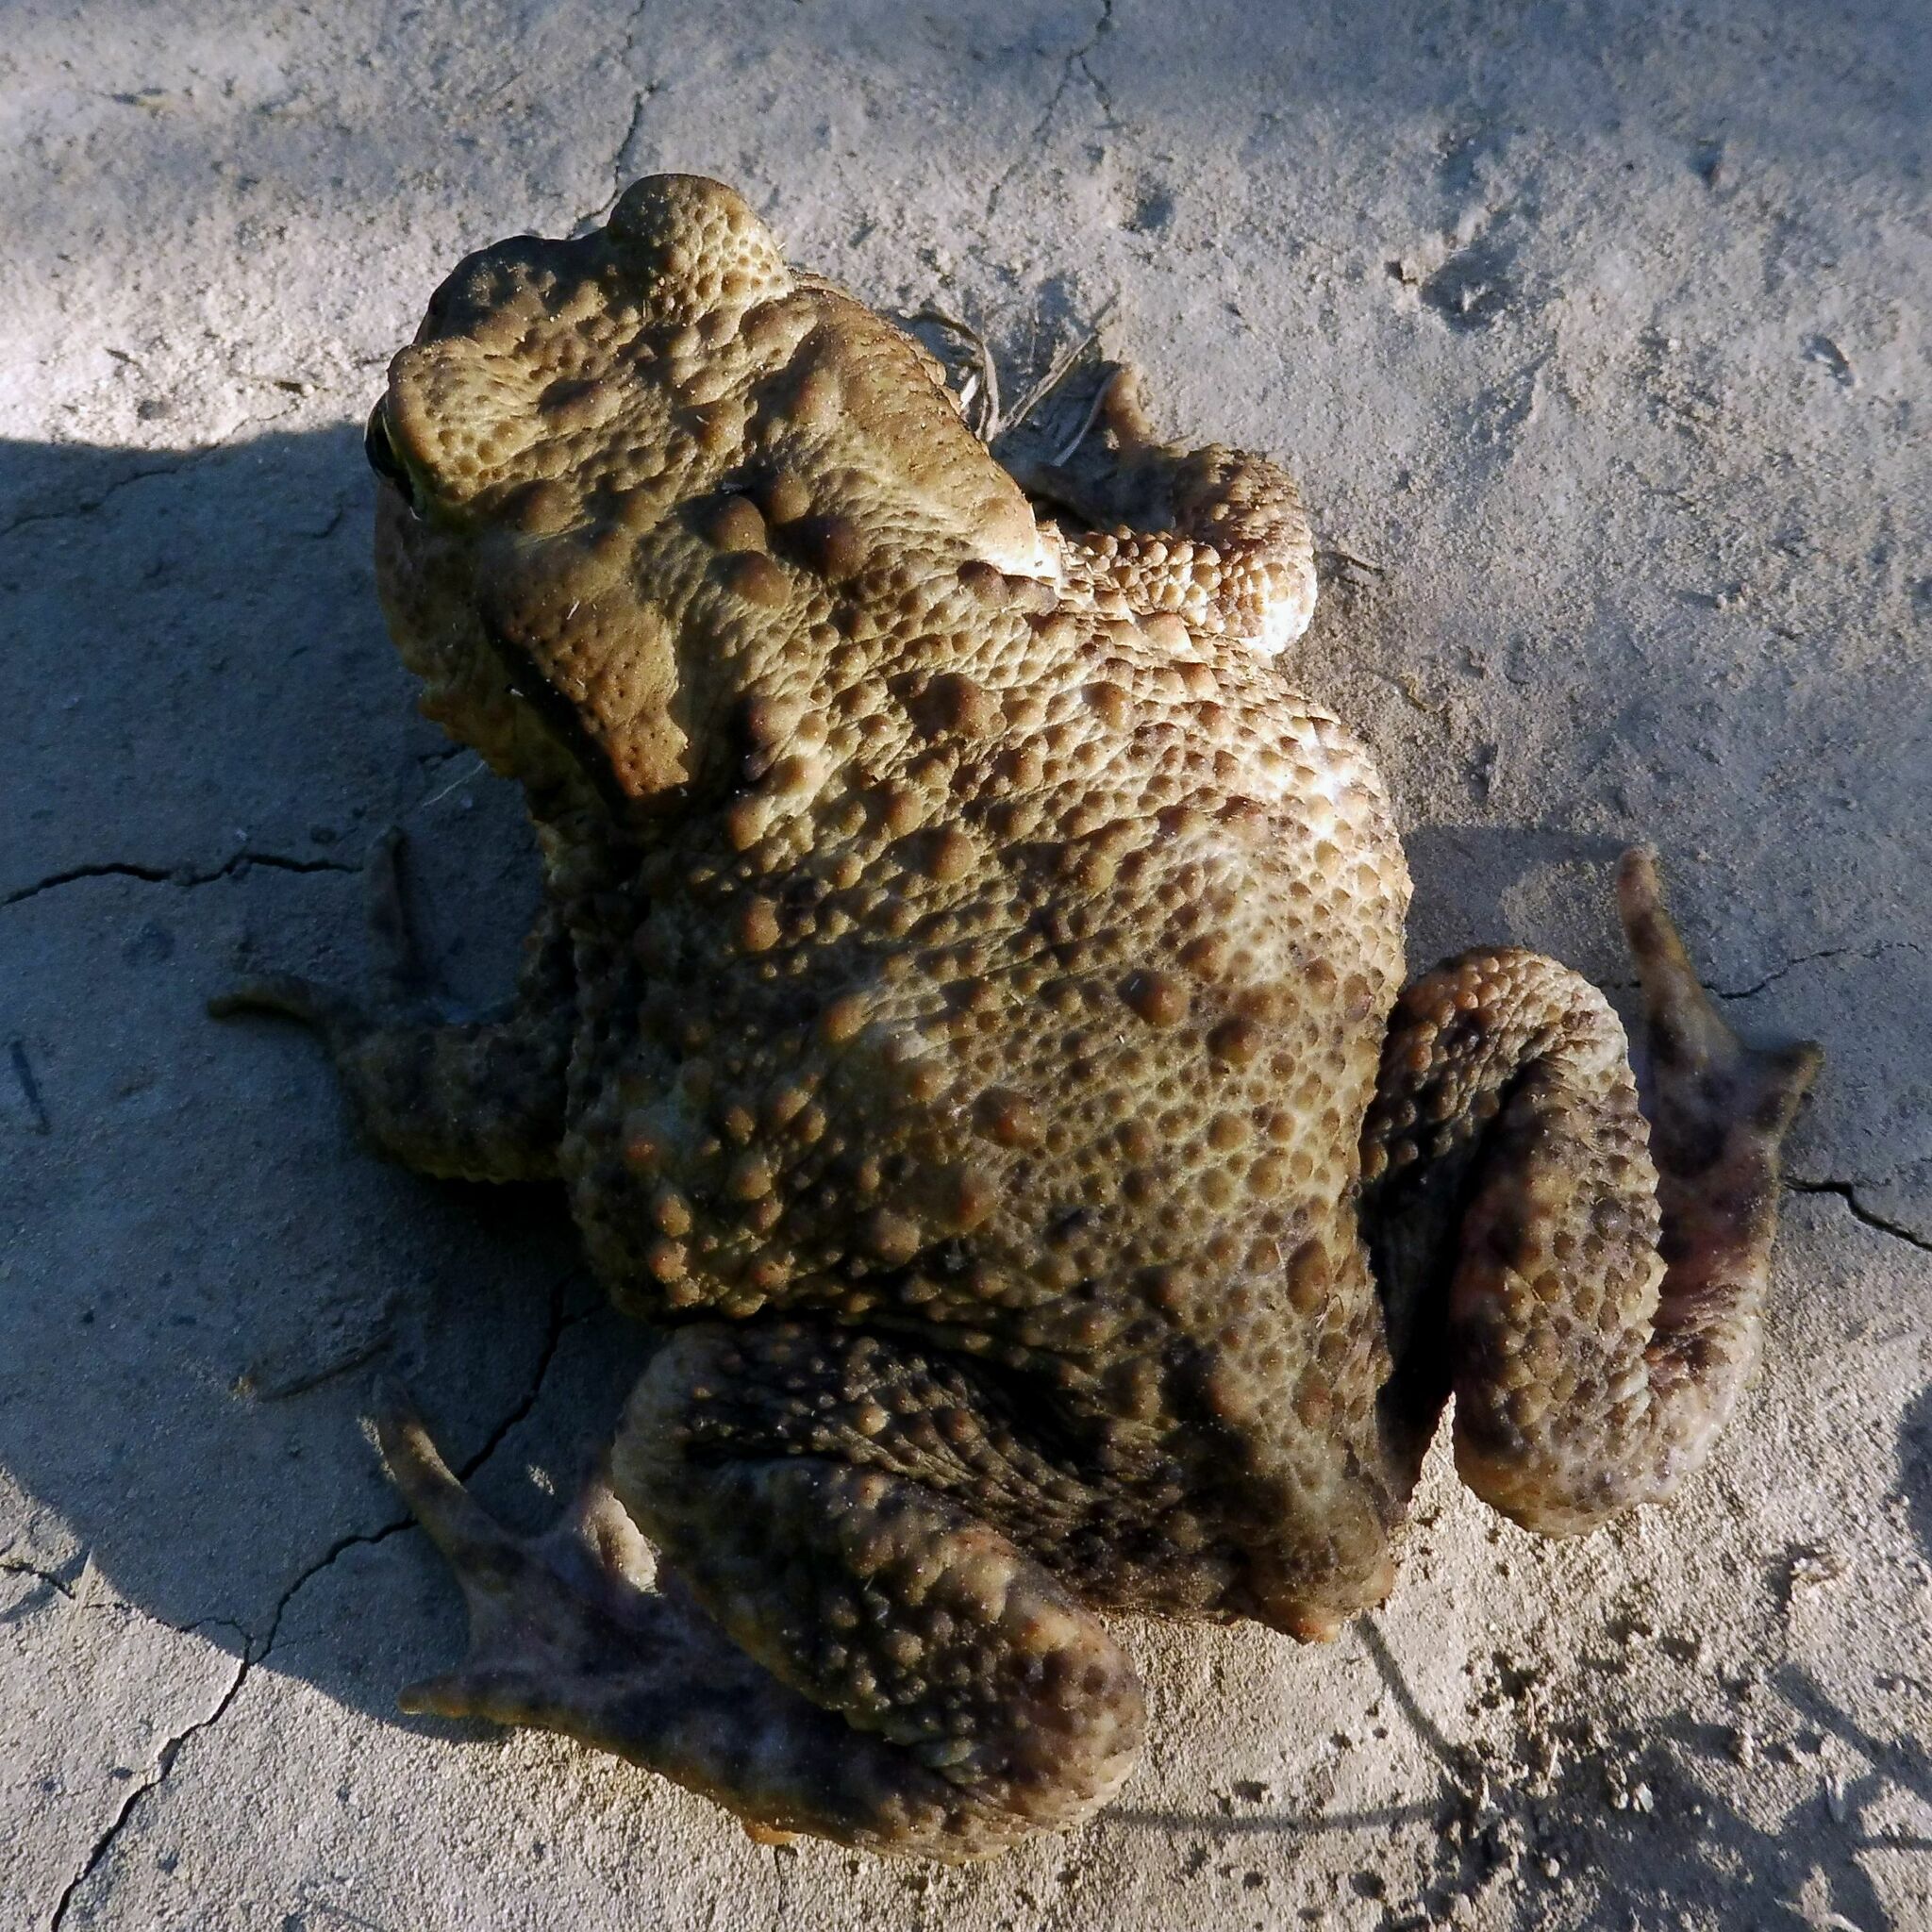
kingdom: Animalia
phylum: Chordata
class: Amphibia
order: Anura
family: Bufonidae
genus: Bufo
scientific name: Bufo bufo
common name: Common toad
